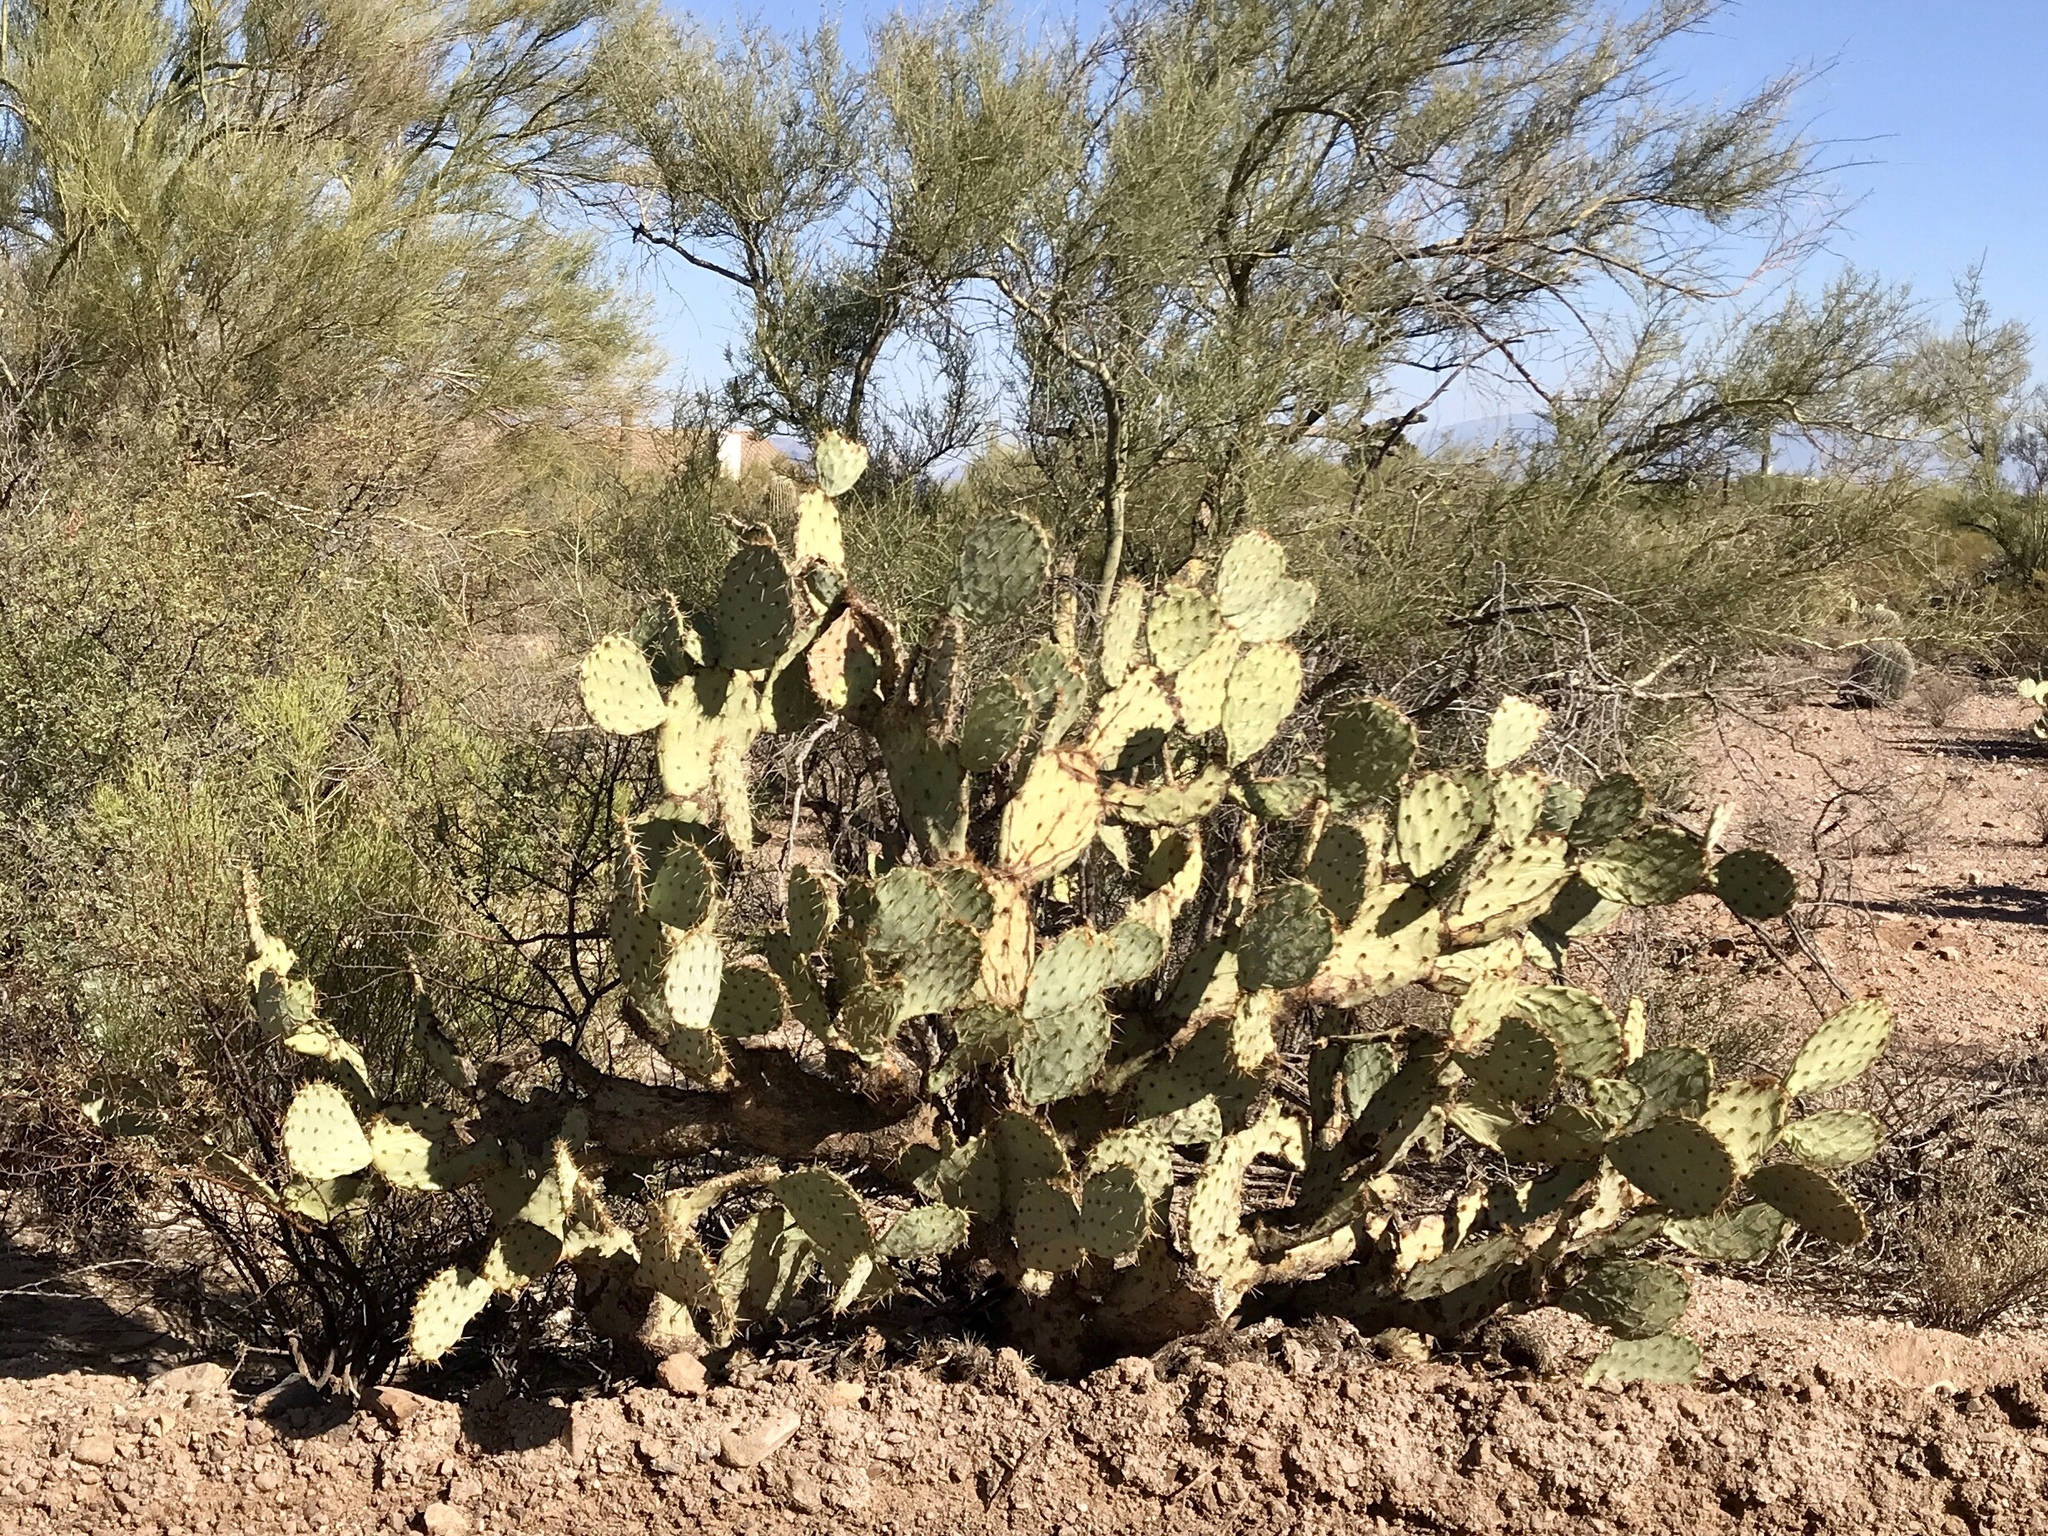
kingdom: Plantae
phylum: Tracheophyta
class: Magnoliopsida
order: Caryophyllales
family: Cactaceae
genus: Opuntia
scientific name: Opuntia engelmannii
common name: Cactus-apple
